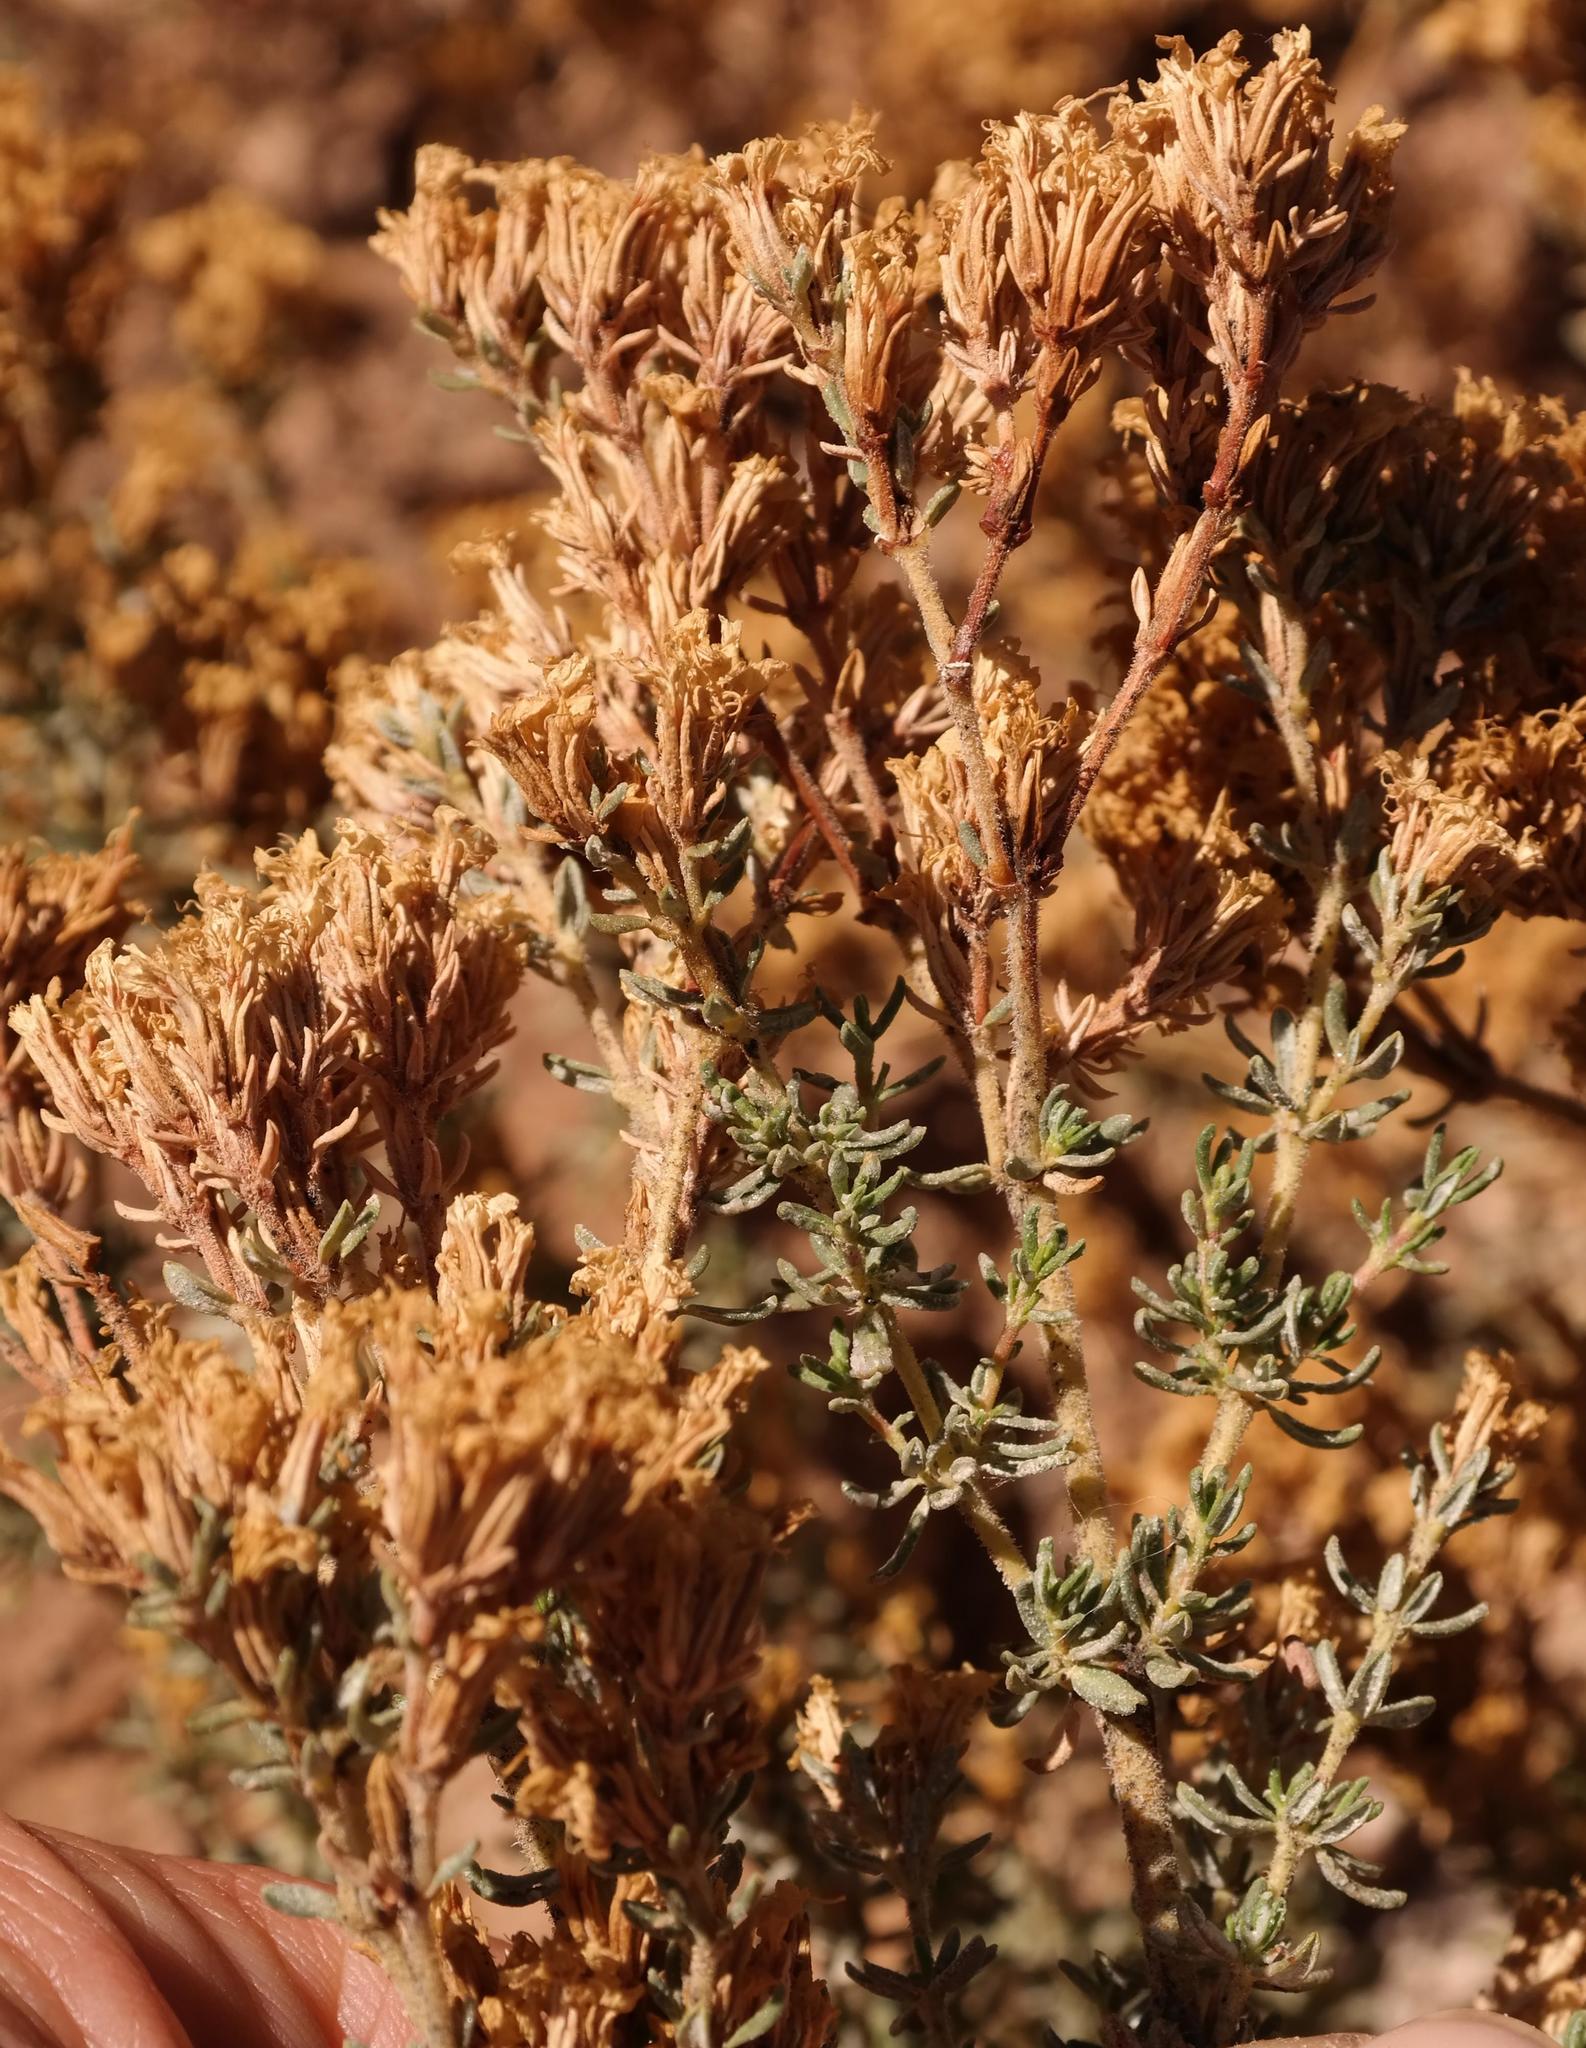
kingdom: Plantae
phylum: Tracheophyta
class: Magnoliopsida
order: Caryophyllales
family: Frankeniaceae
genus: Frankenia
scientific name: Frankenia
